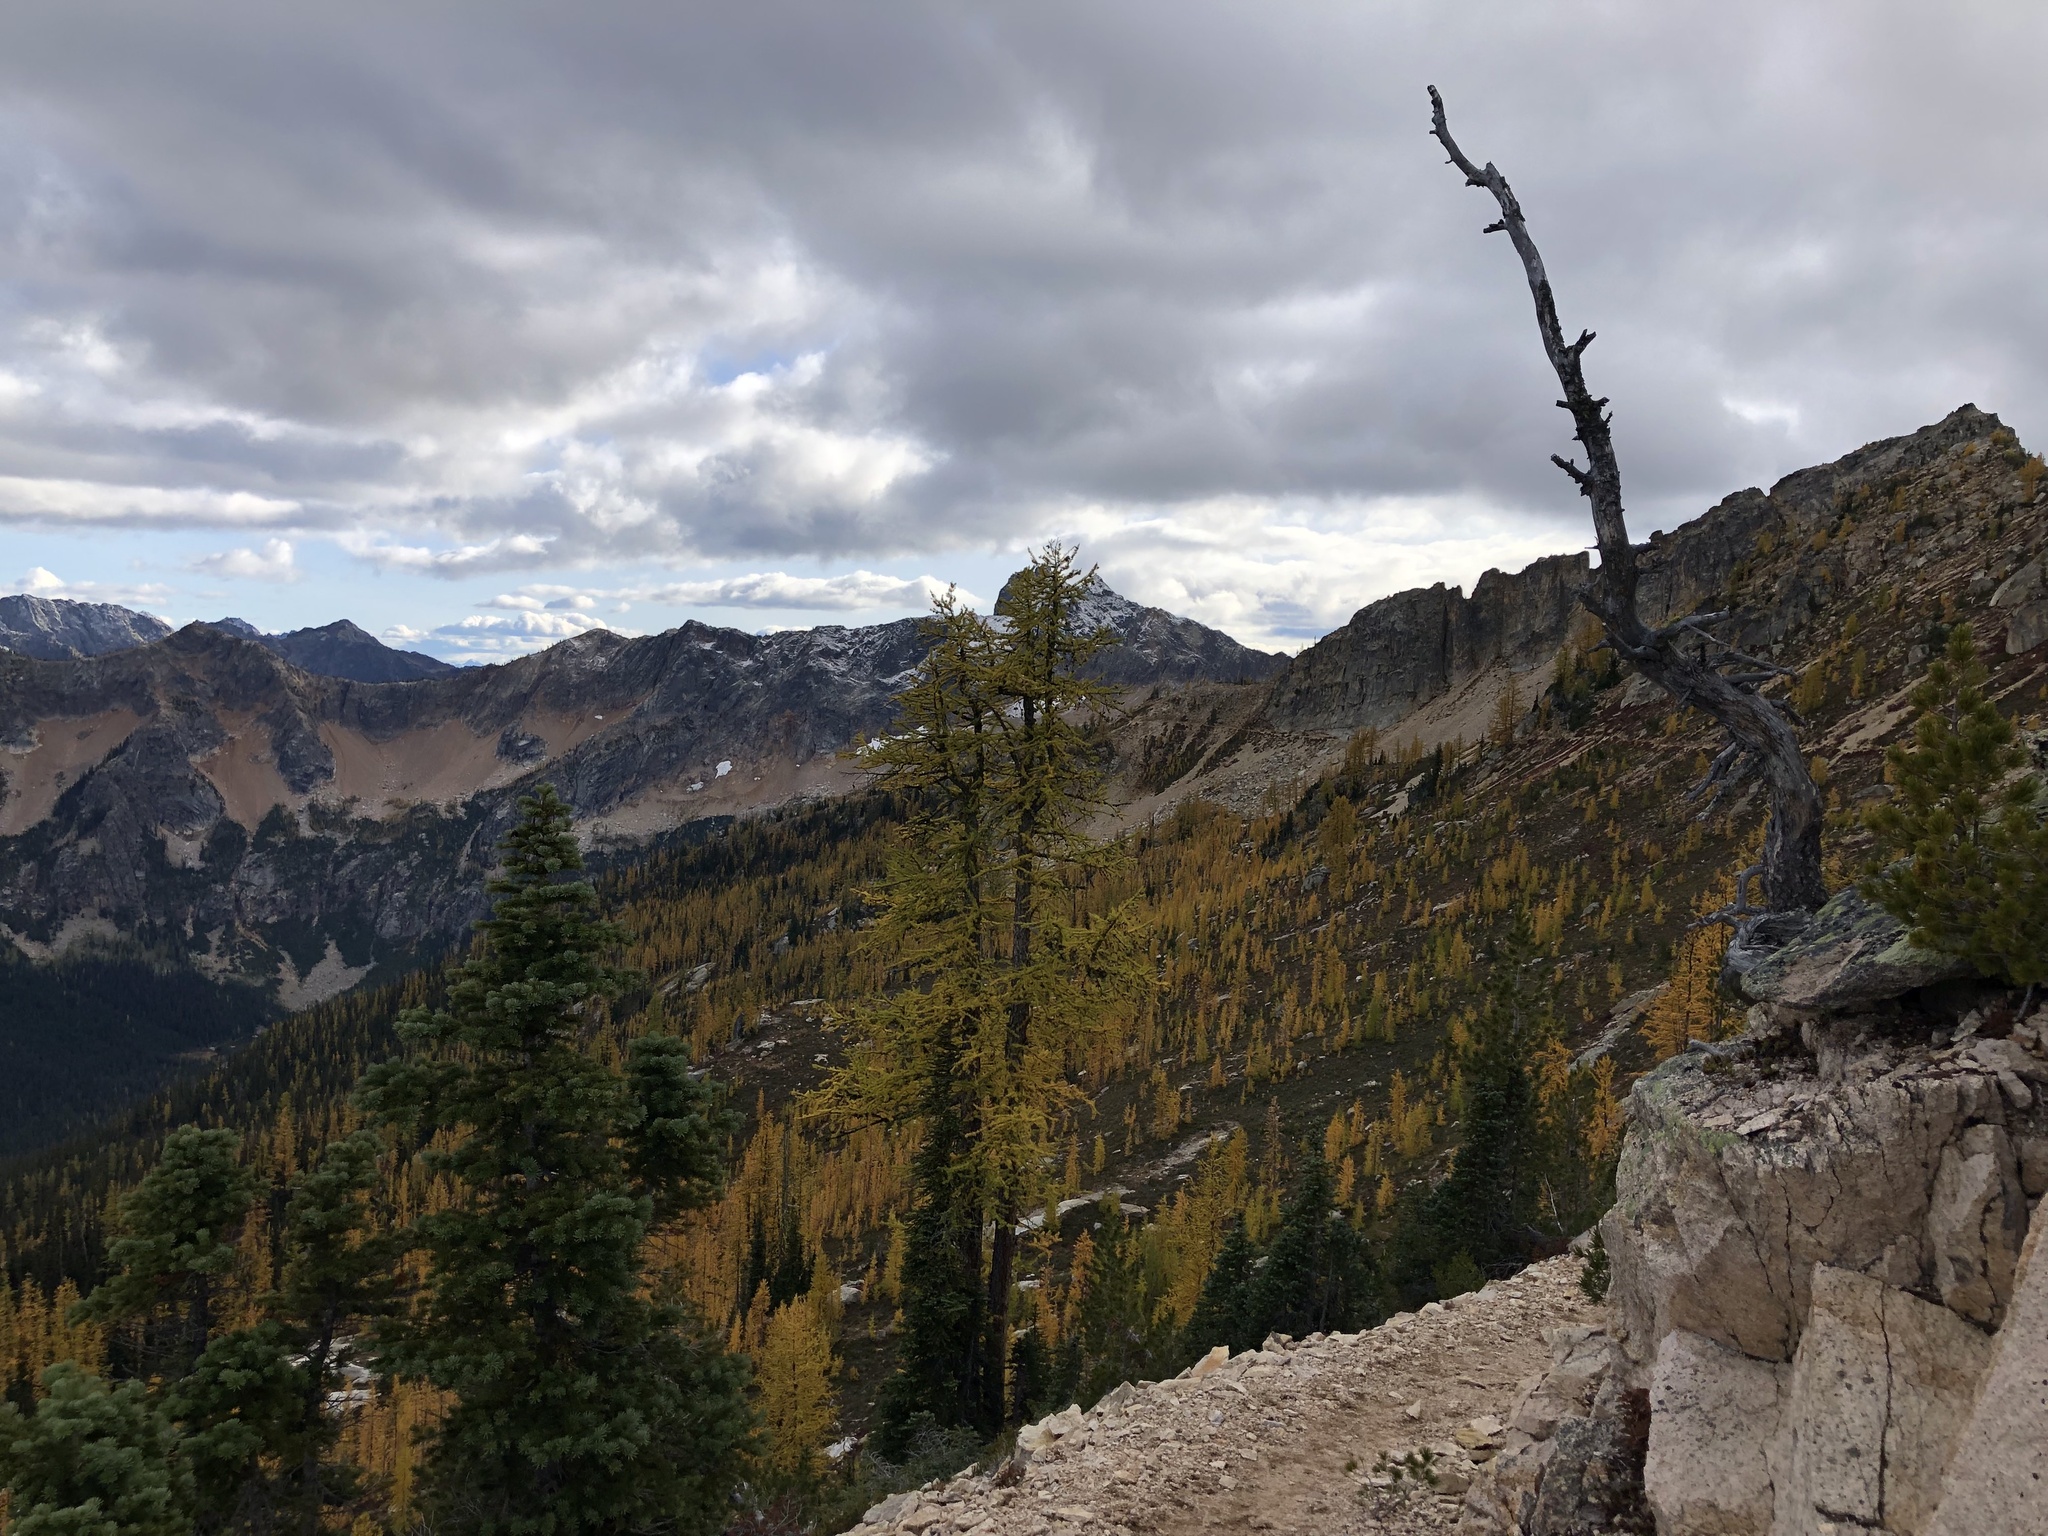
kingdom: Plantae
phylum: Tracheophyta
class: Pinopsida
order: Pinales
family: Pinaceae
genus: Larix
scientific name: Larix lyallii
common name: Alpine larch
